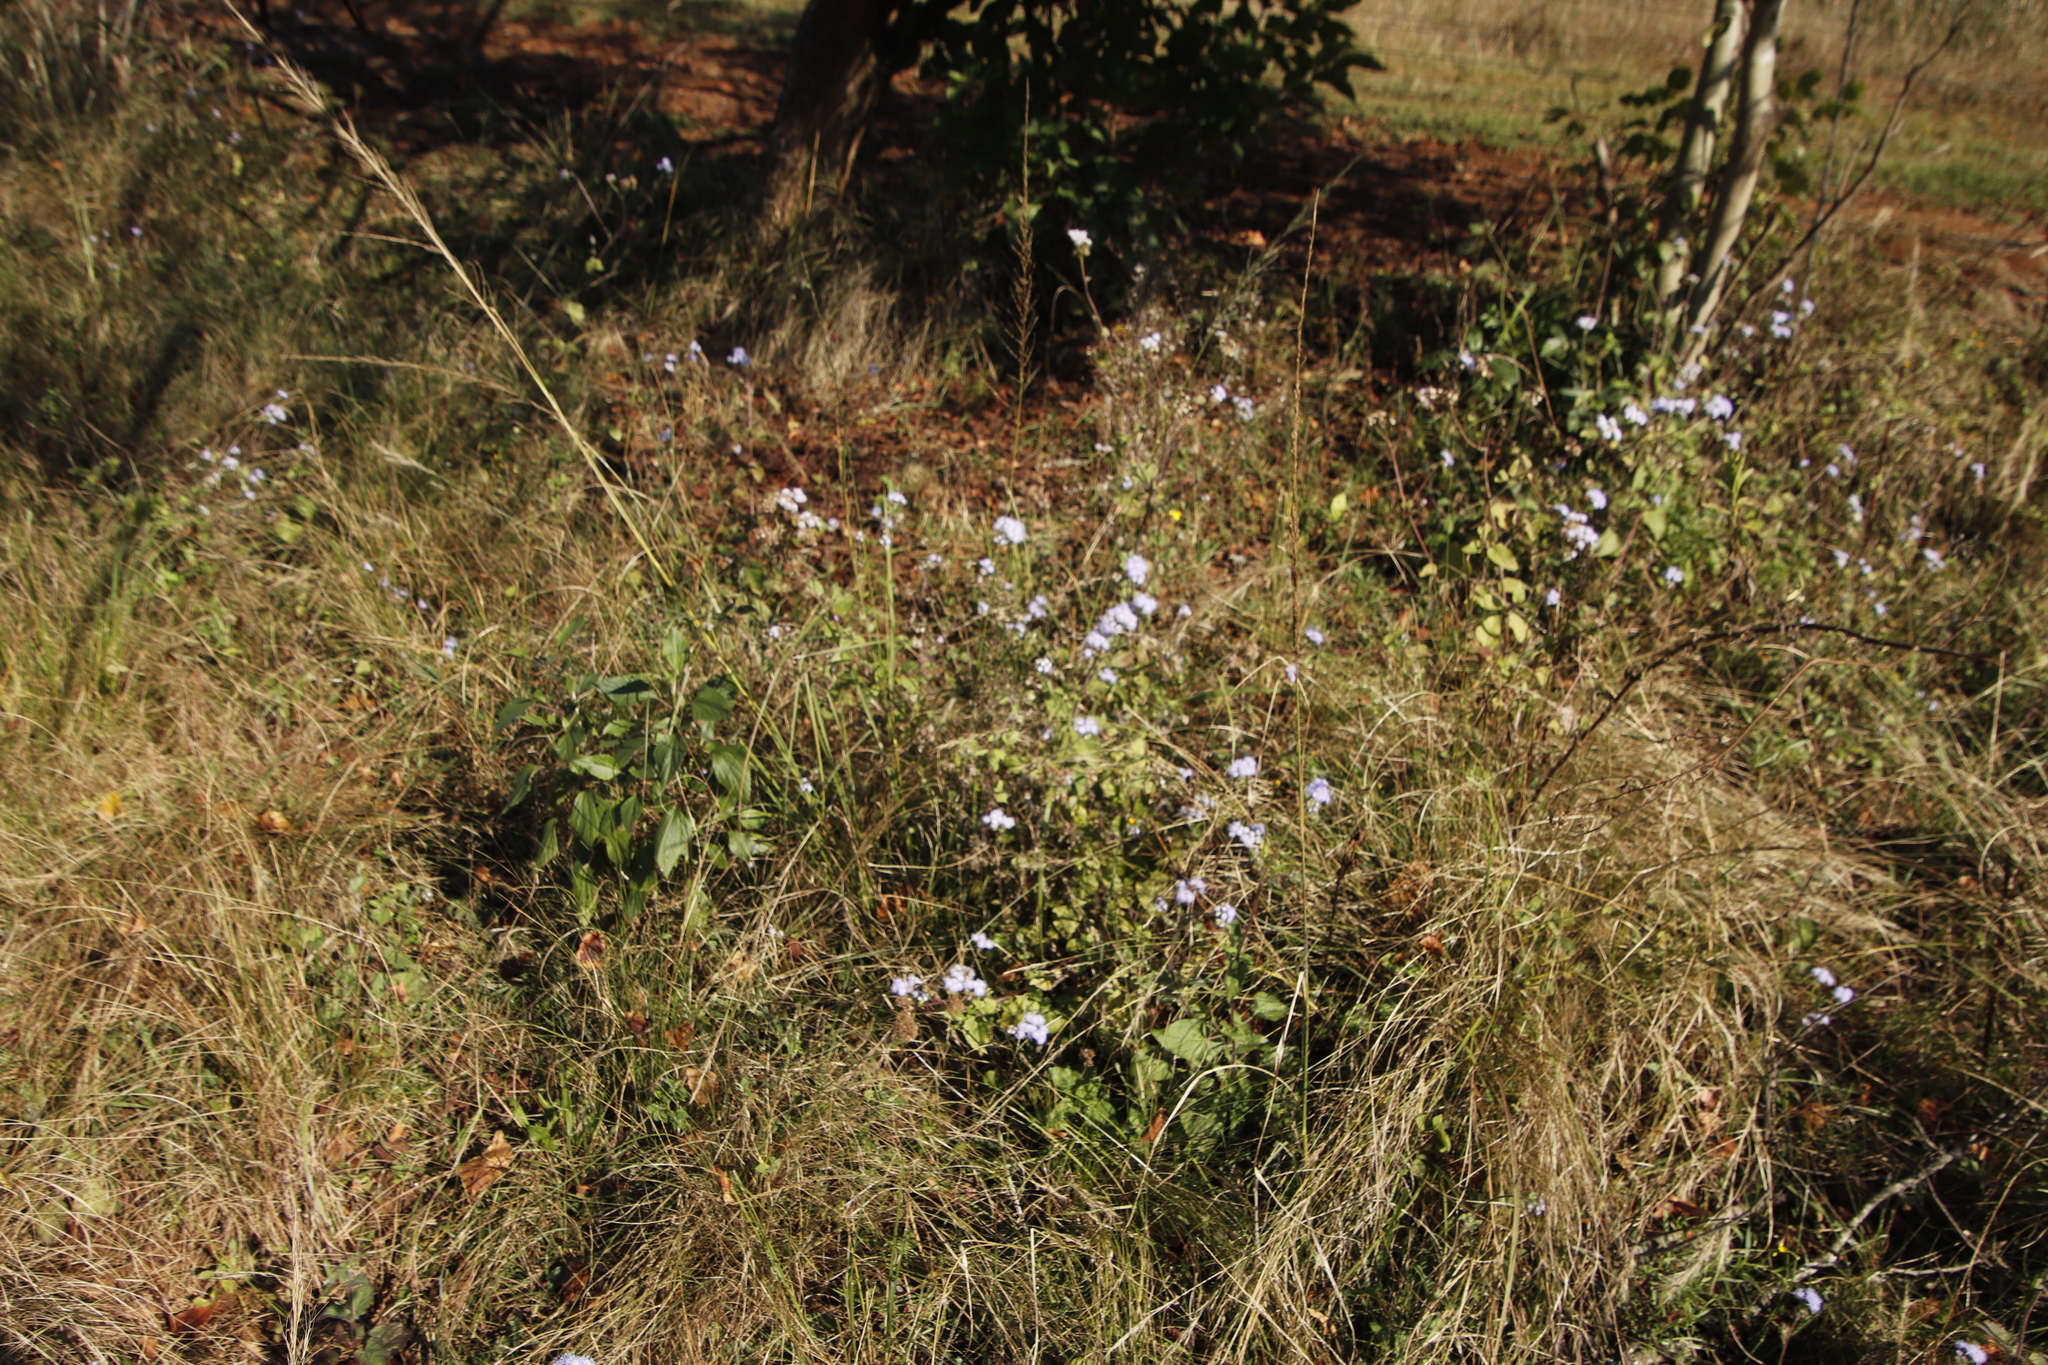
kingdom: Plantae
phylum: Tracheophyta
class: Magnoliopsida
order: Asterales
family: Asteraceae
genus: Ageratum
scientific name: Ageratum houstonianum
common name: Bluemink
